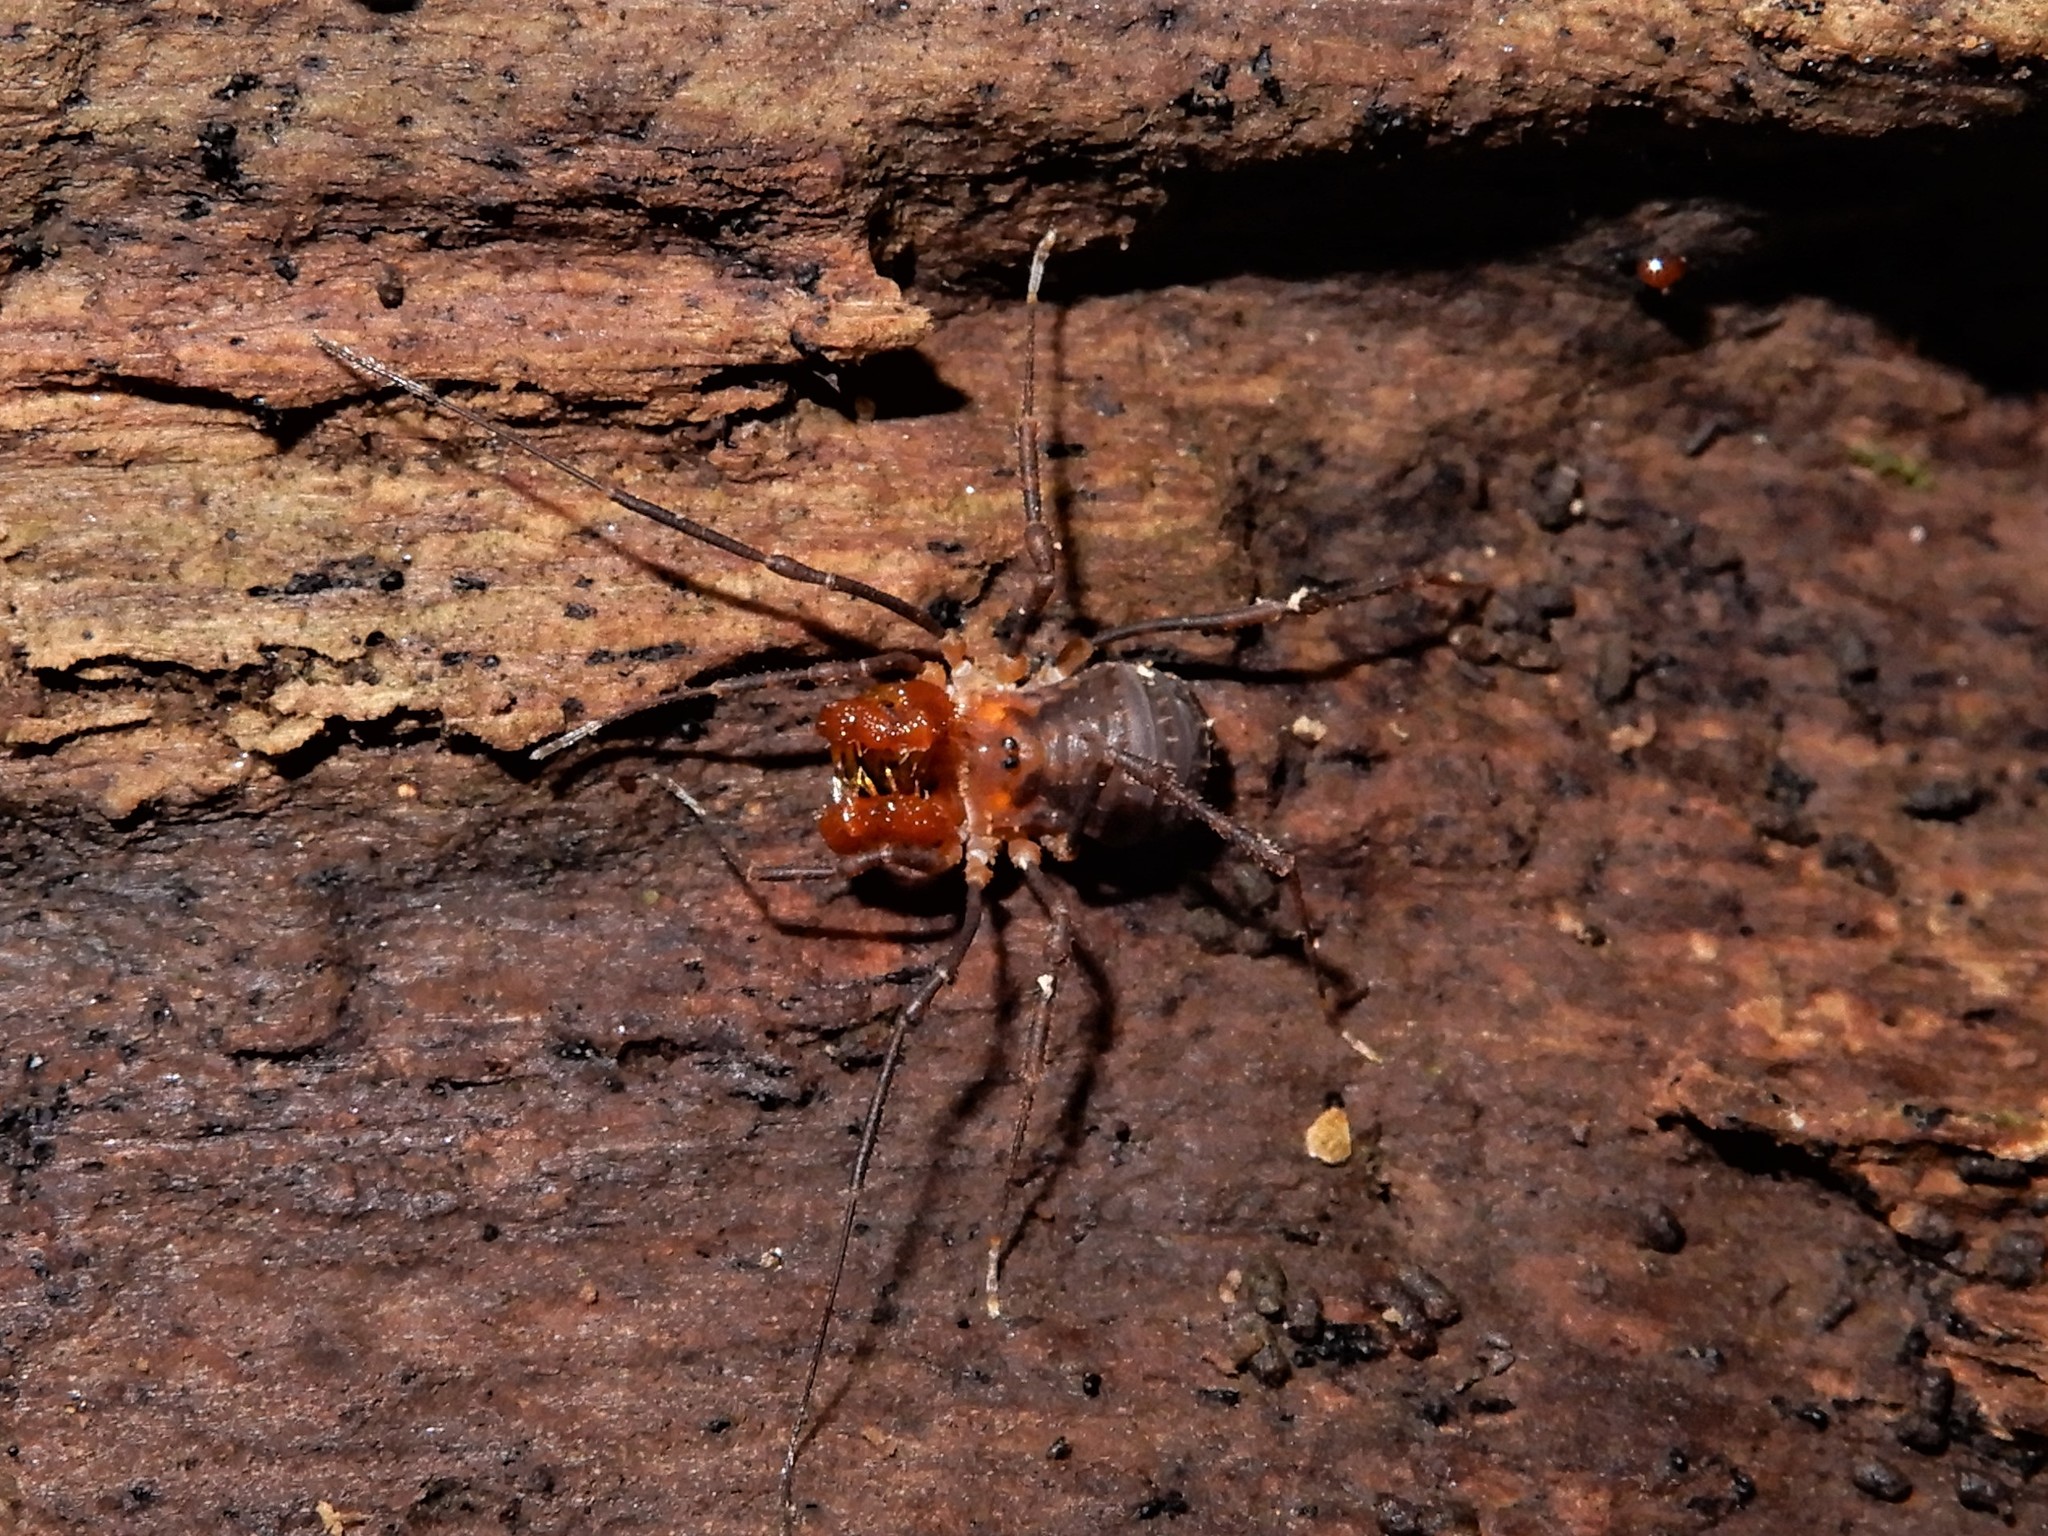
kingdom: Animalia
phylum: Arthropoda
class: Arachnida
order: Opiliones
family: Triaenonychidae
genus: Sorensenella
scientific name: Sorensenella prehensor
